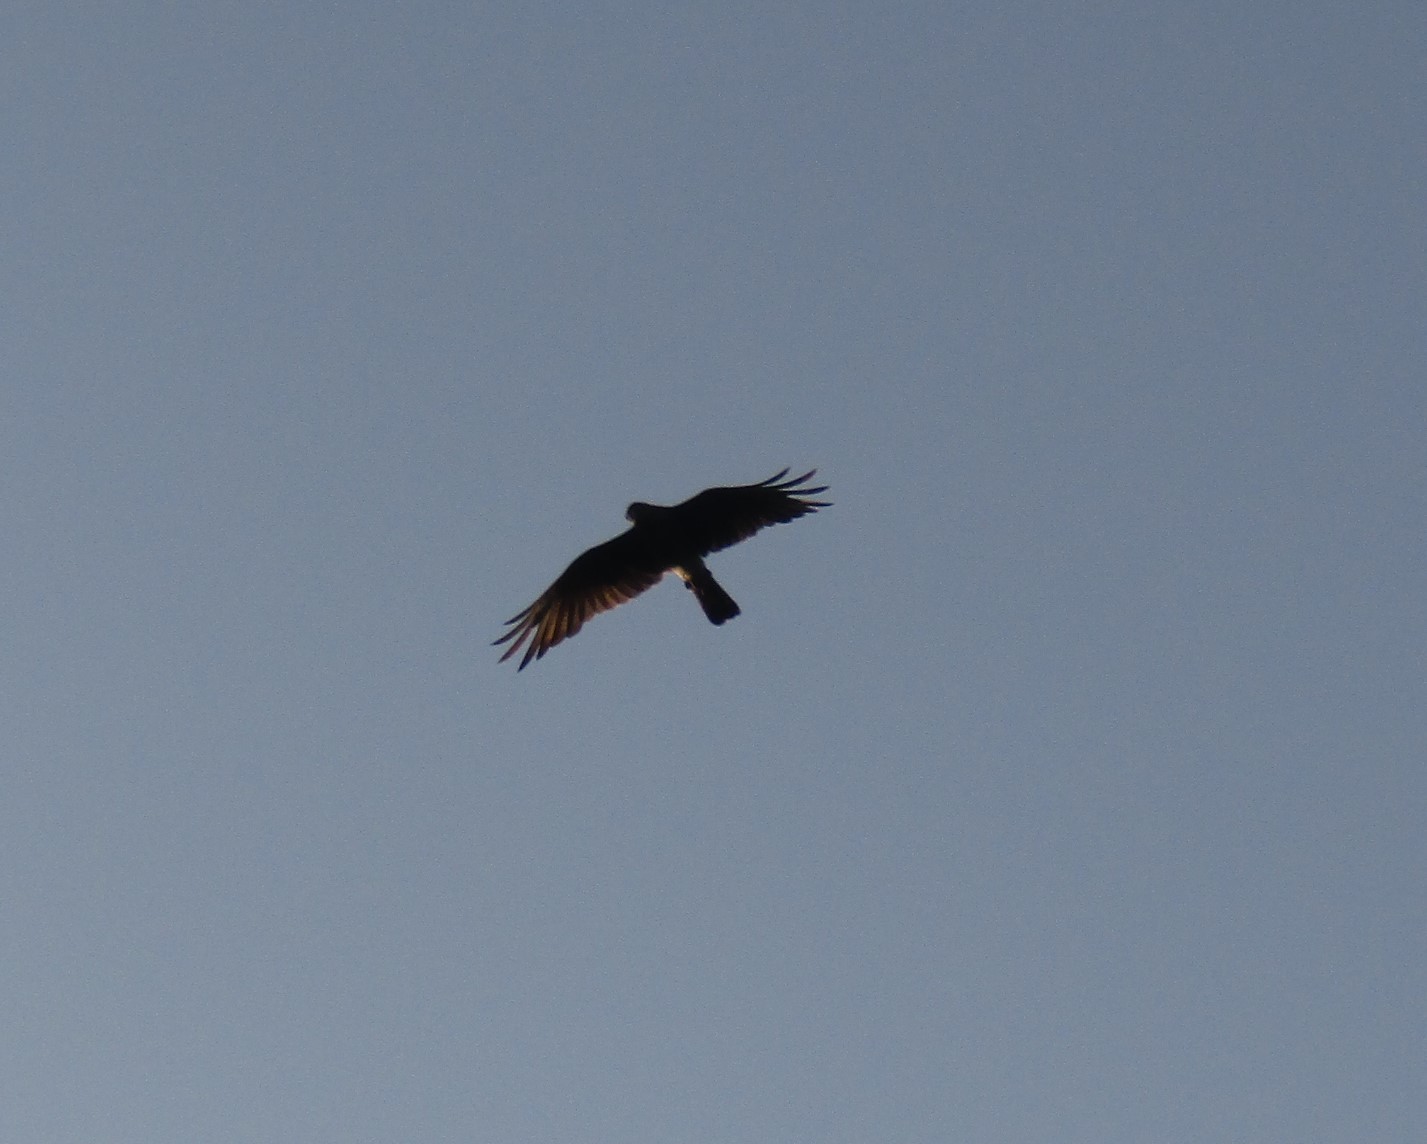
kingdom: Animalia
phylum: Chordata
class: Aves
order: Falconiformes
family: Falconidae
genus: Daptrius
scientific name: Daptrius
